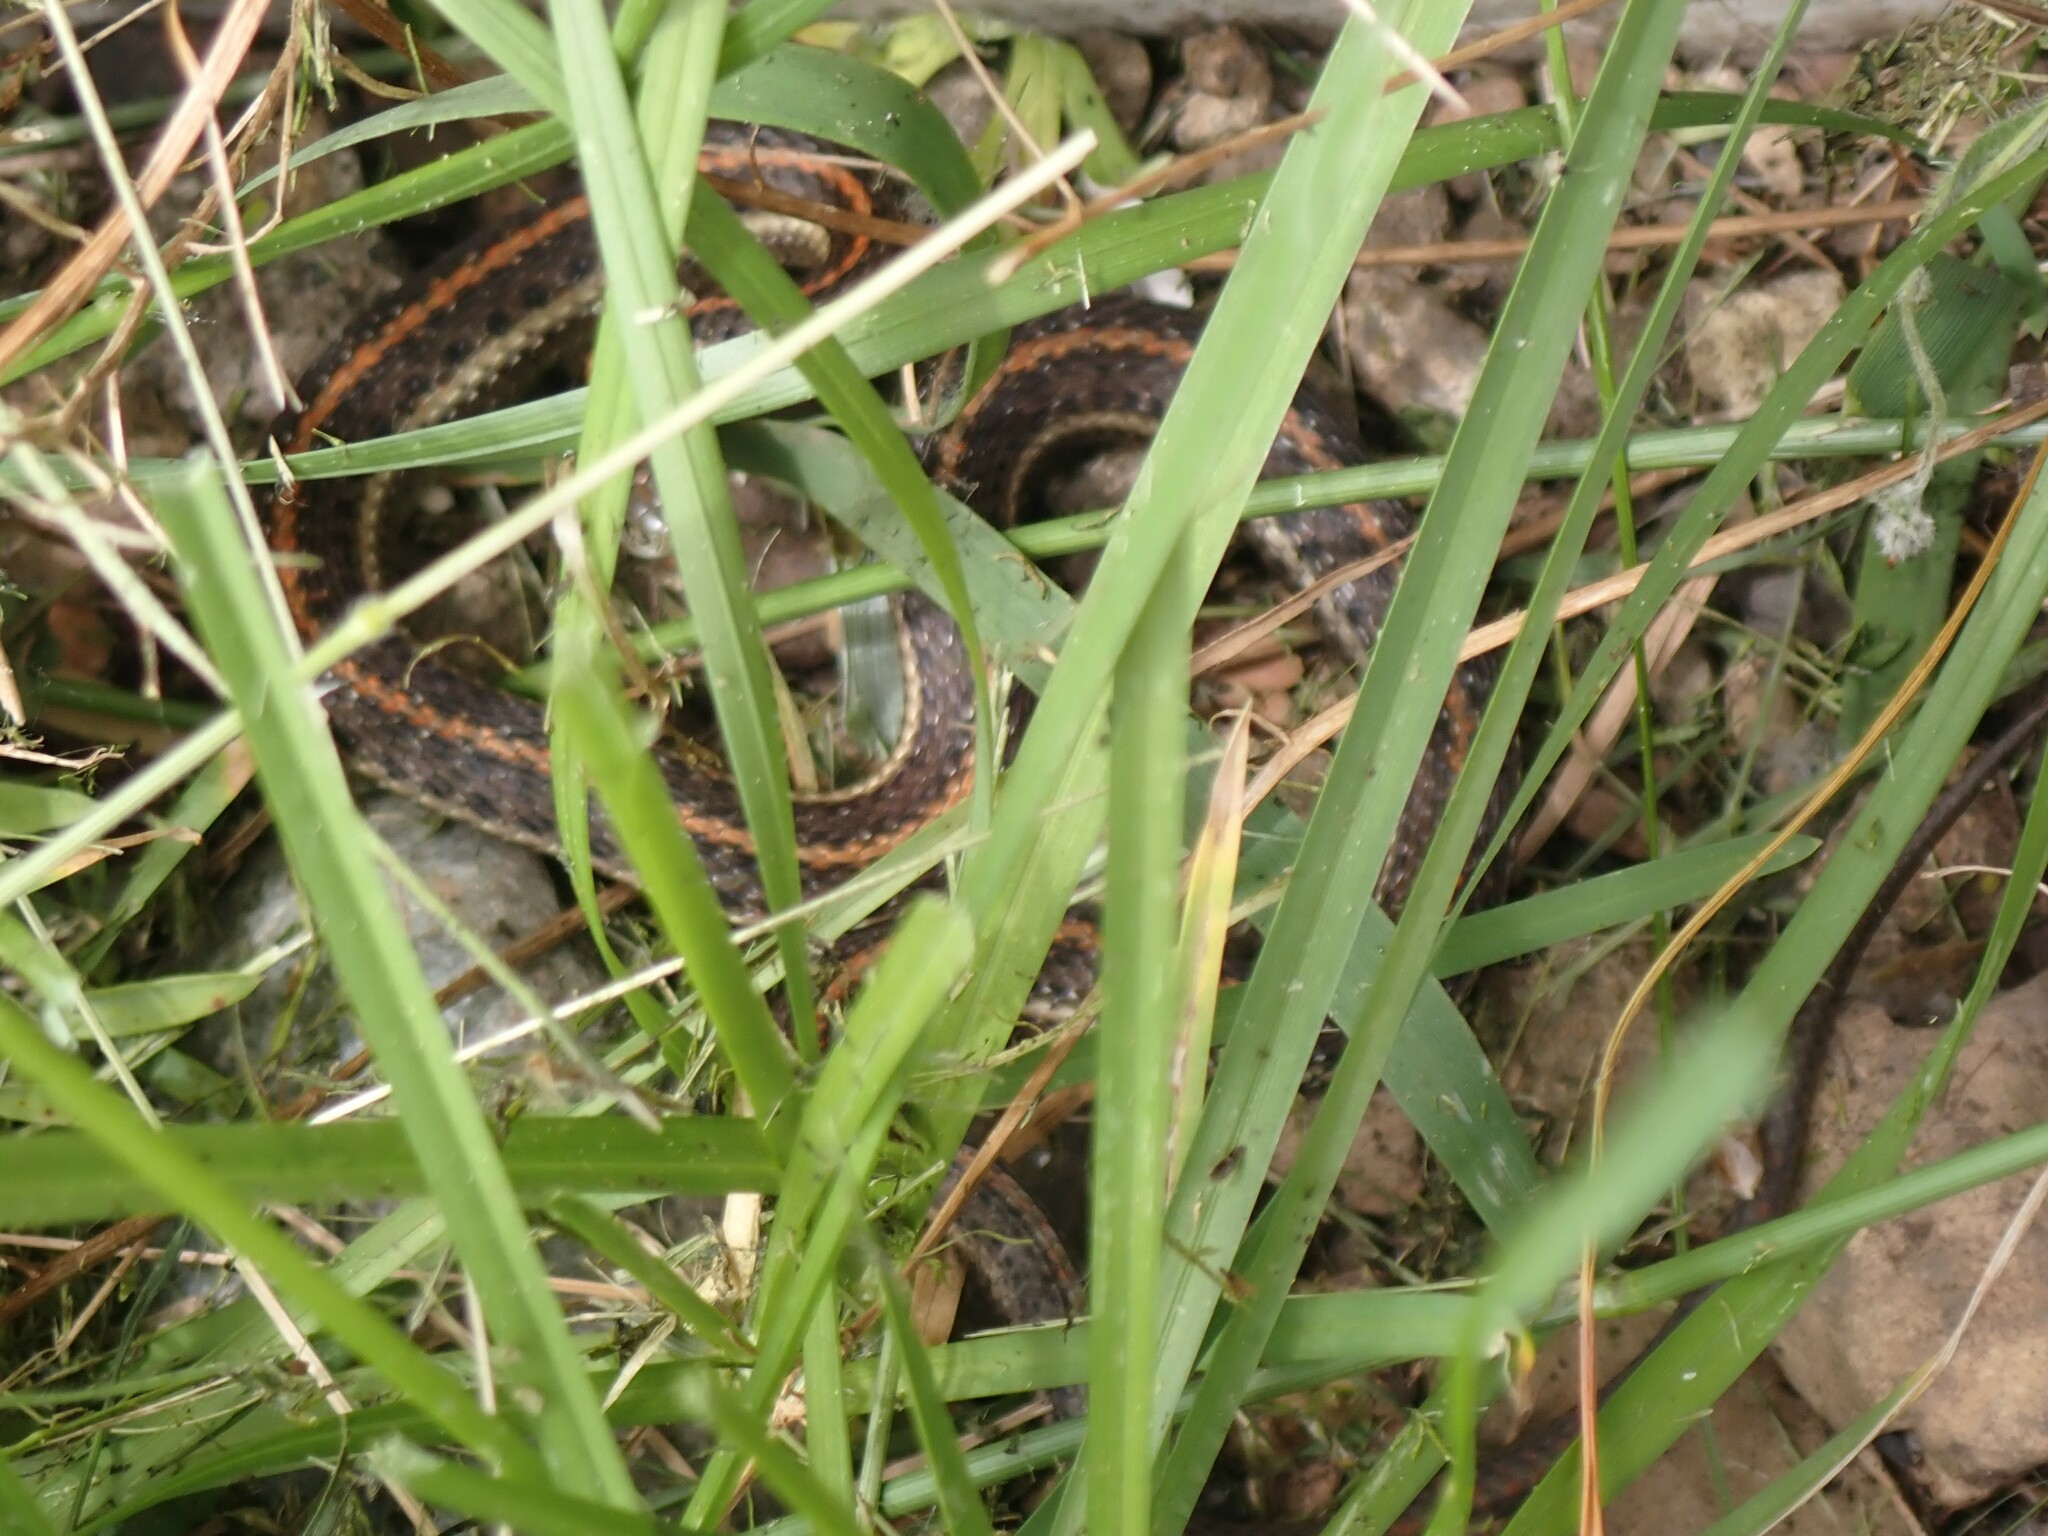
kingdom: Animalia
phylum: Chordata
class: Squamata
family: Colubridae
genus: Thamnophis
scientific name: Thamnophis ordinoides
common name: Northwestern garter snake
